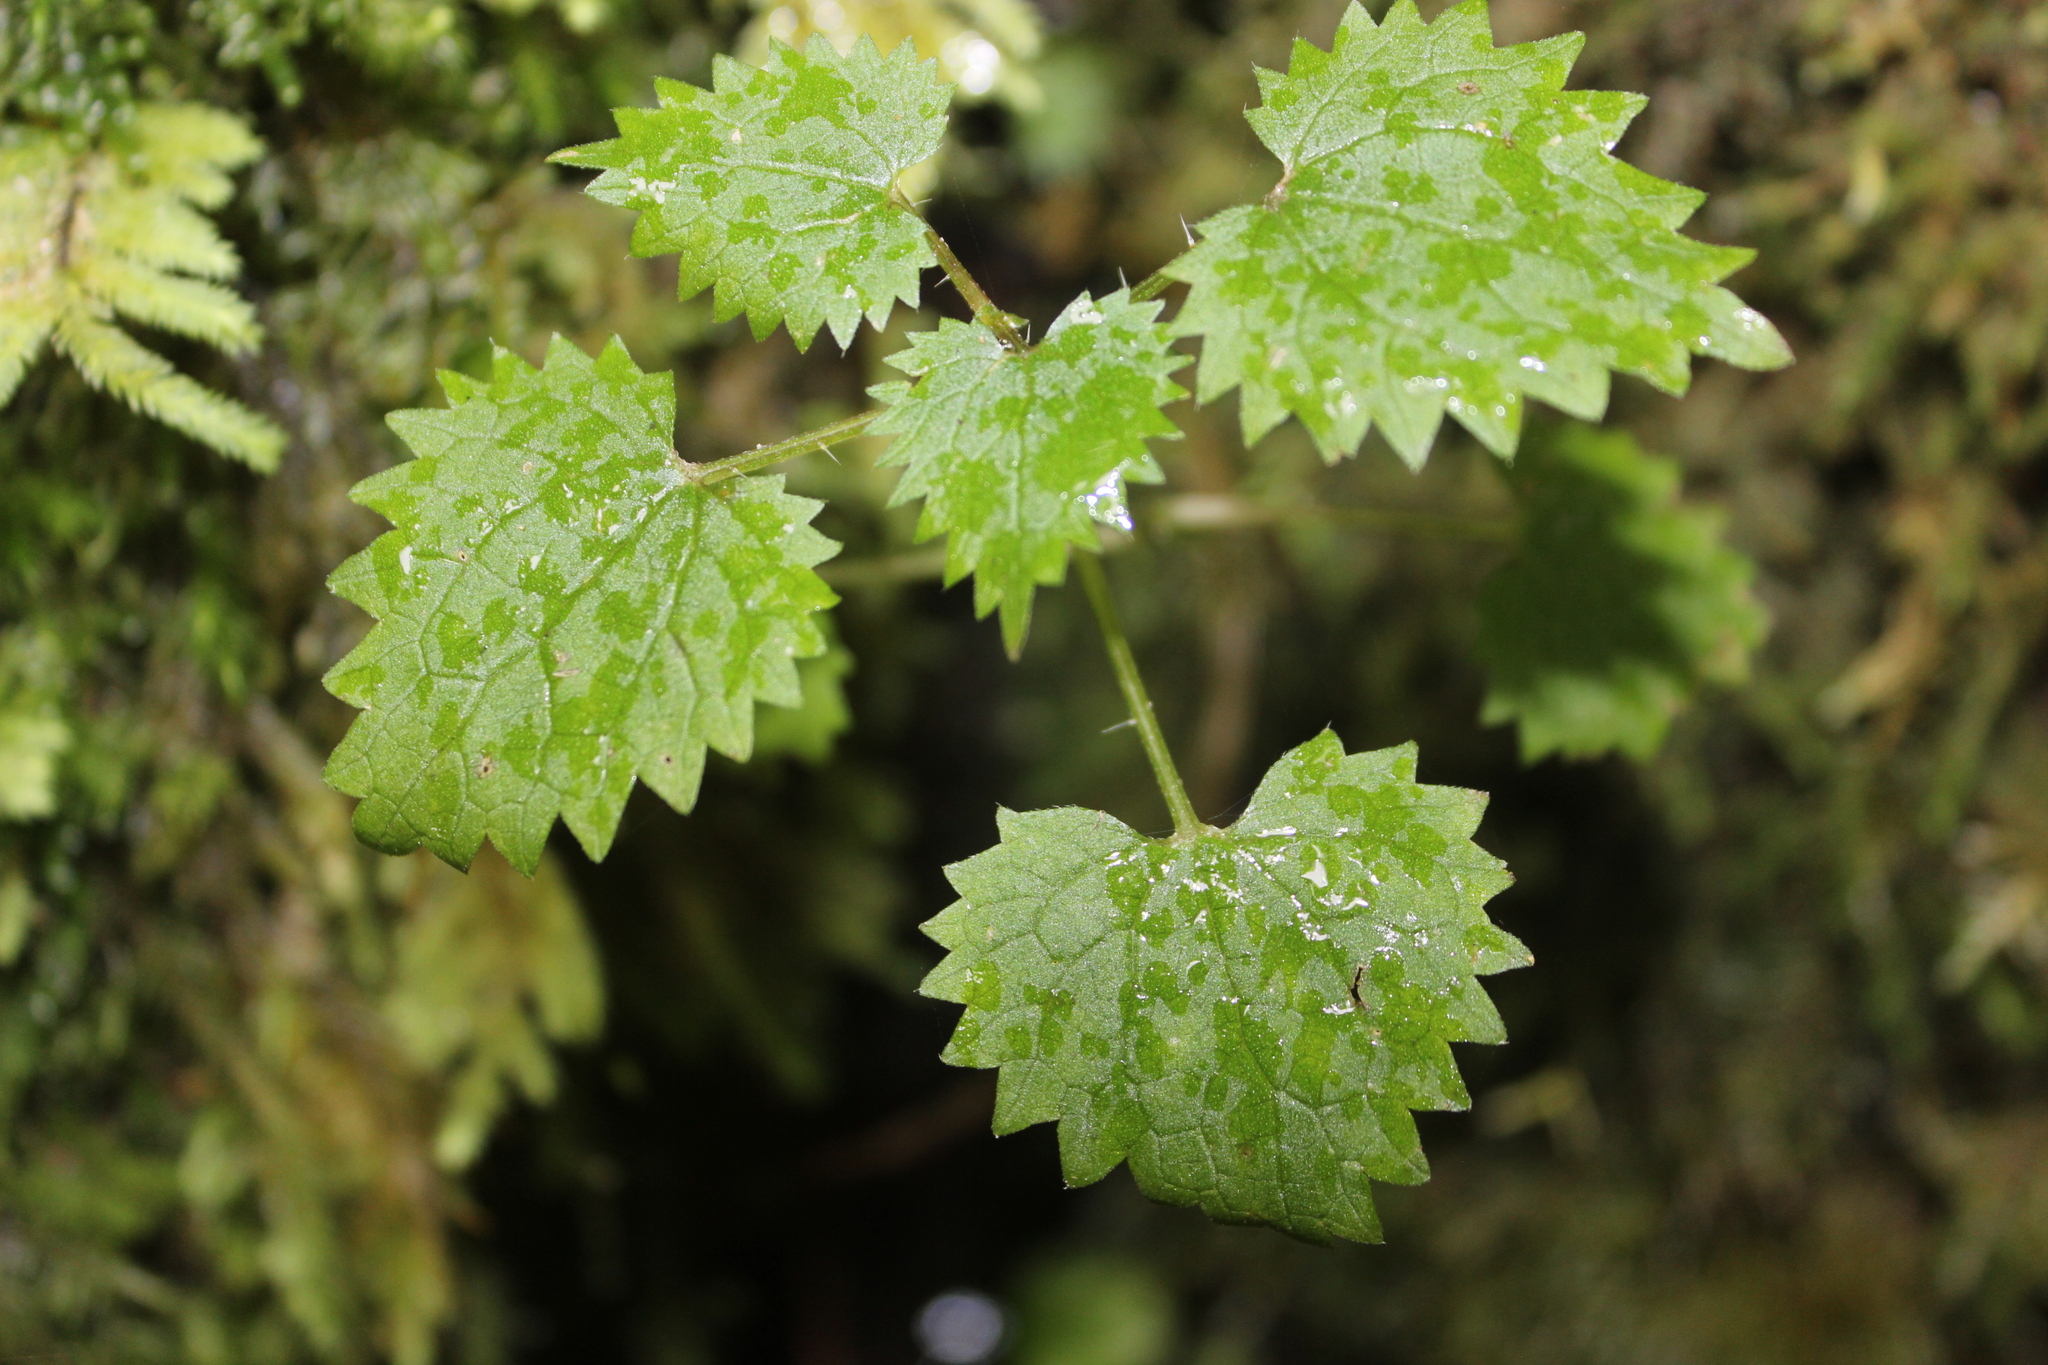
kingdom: Plantae
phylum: Tracheophyta
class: Magnoliopsida
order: Rosales
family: Urticaceae
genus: Urtica
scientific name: Urtica sykesii
